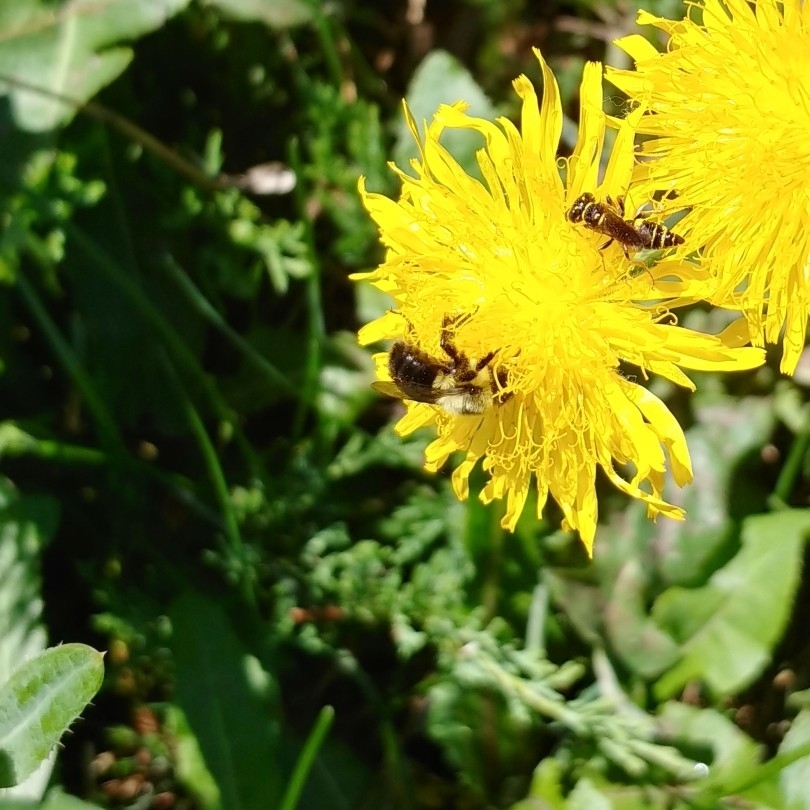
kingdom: Animalia
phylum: Arthropoda
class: Insecta
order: Hymenoptera
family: Apidae
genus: Bombus
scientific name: Bombus impatiens
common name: Common eastern bumble bee
